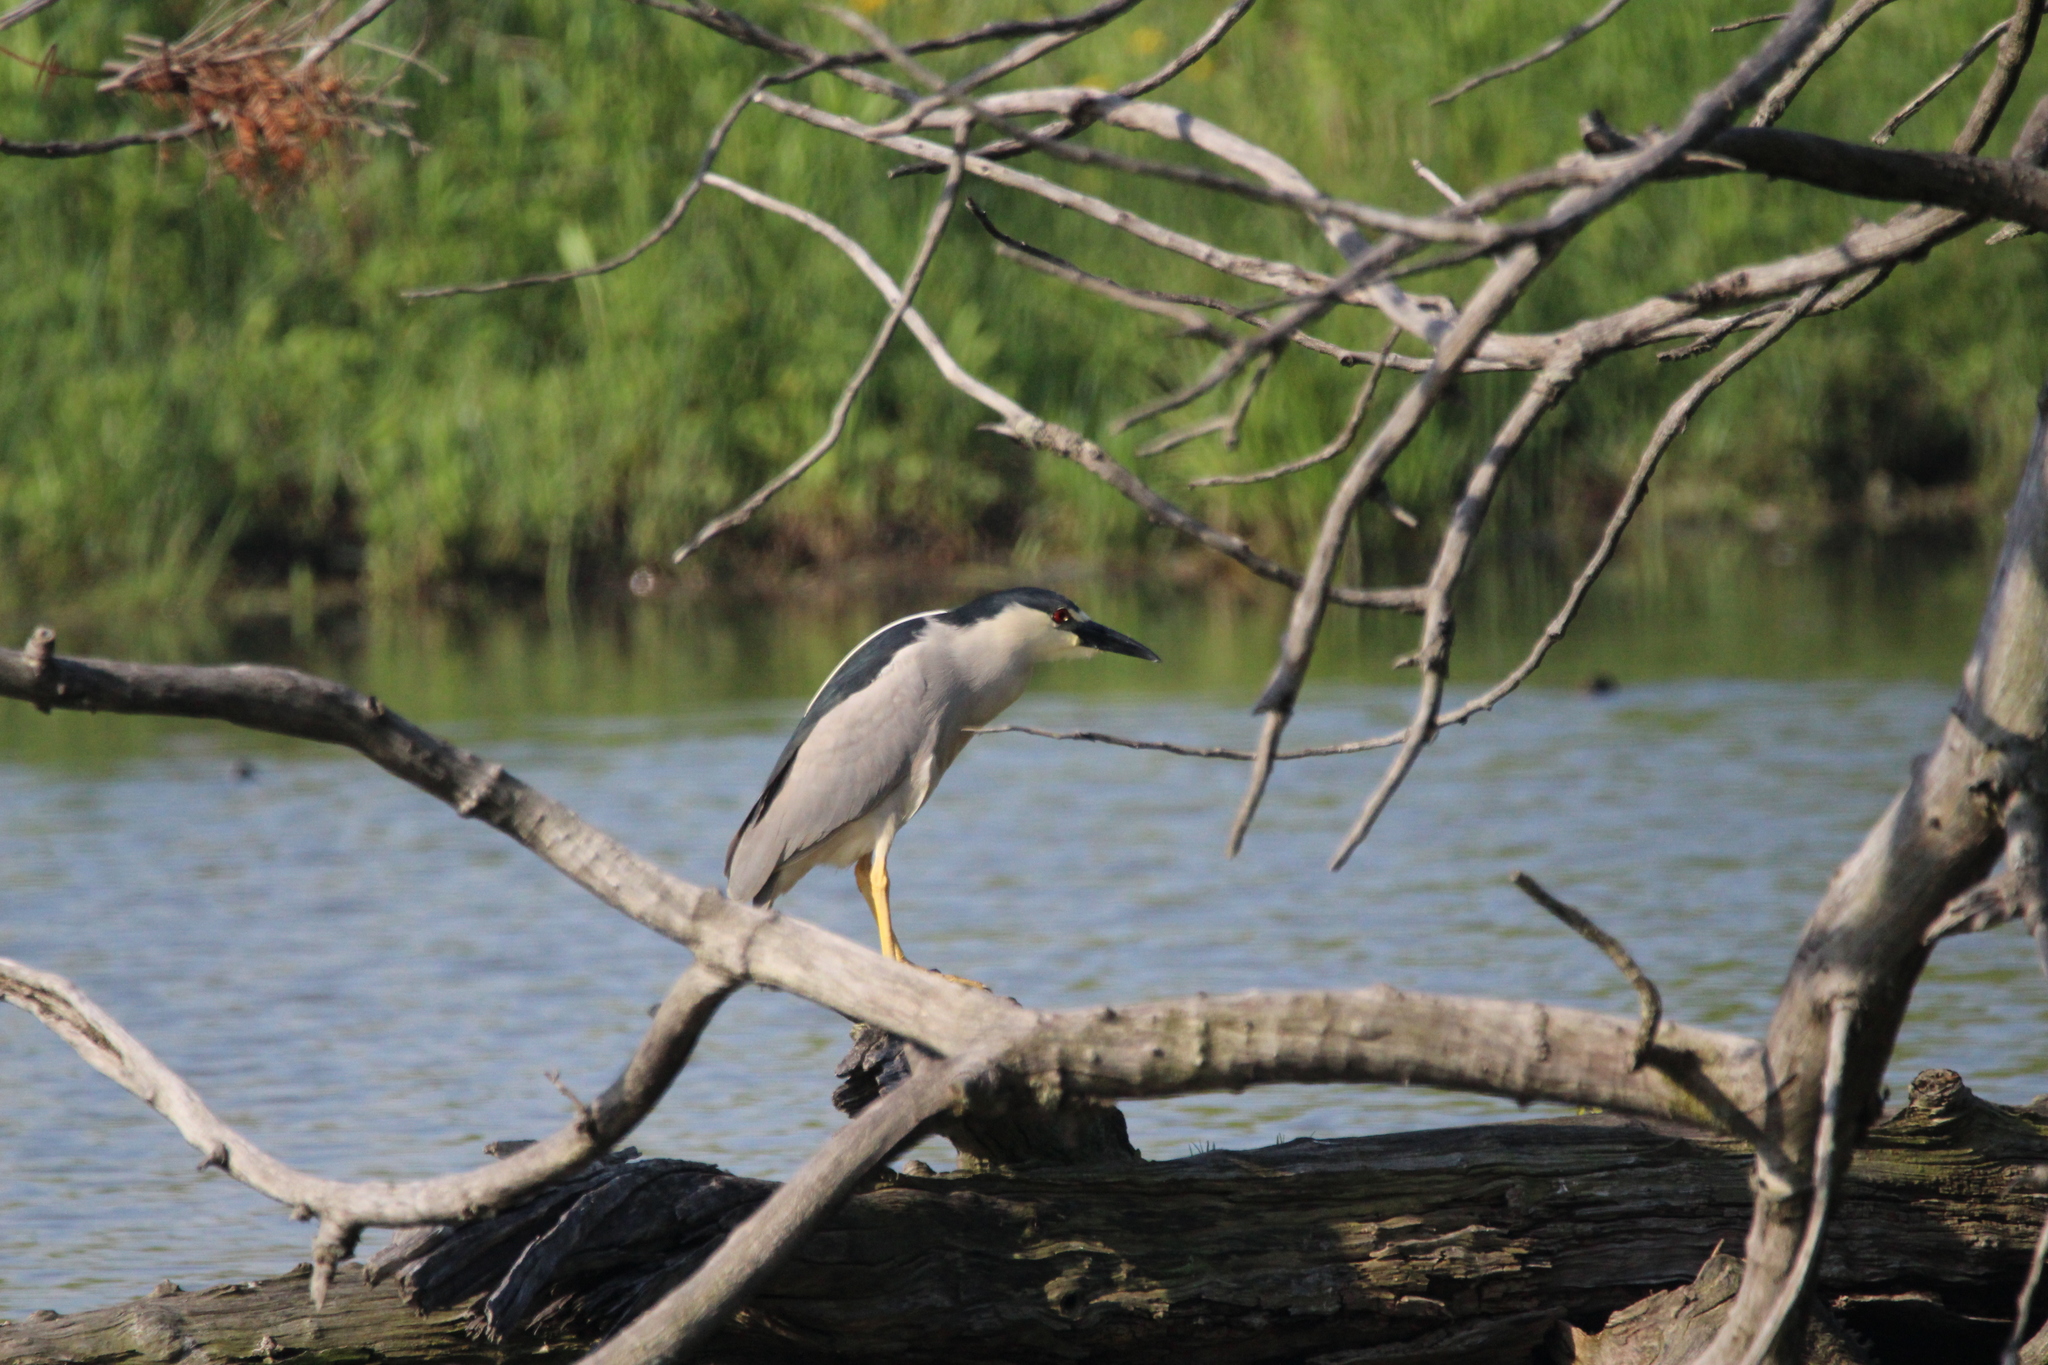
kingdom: Animalia
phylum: Chordata
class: Aves
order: Pelecaniformes
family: Ardeidae
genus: Nycticorax
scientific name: Nycticorax nycticorax
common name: Black-crowned night heron
